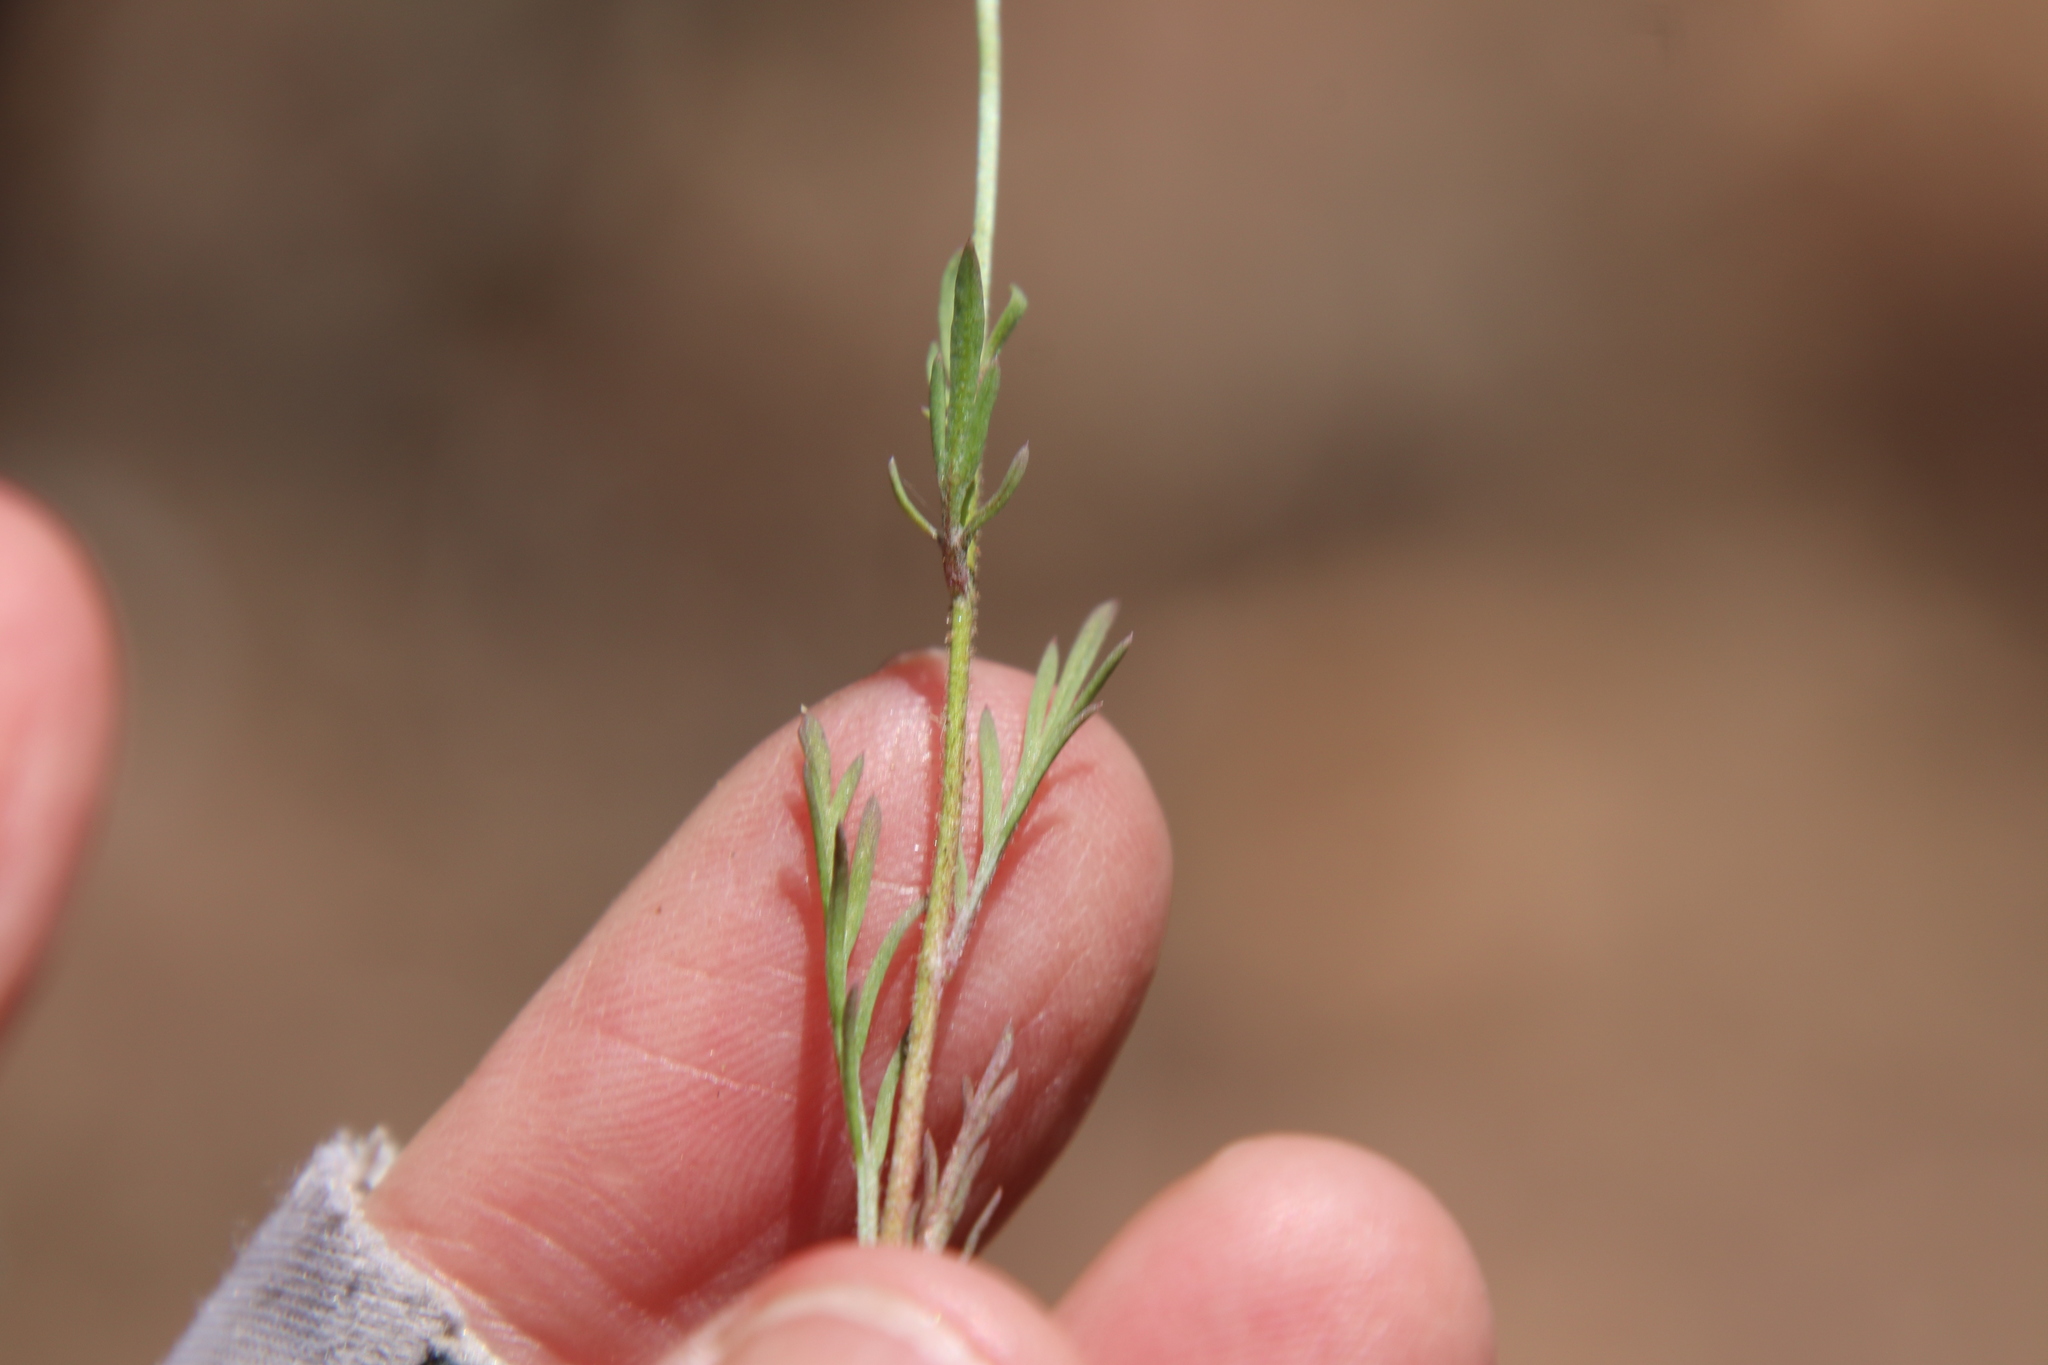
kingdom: Plantae
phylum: Tracheophyta
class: Magnoliopsida
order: Ericales
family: Polemoniaceae
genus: Gilia
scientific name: Gilia capitata
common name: Bluehead gilia
